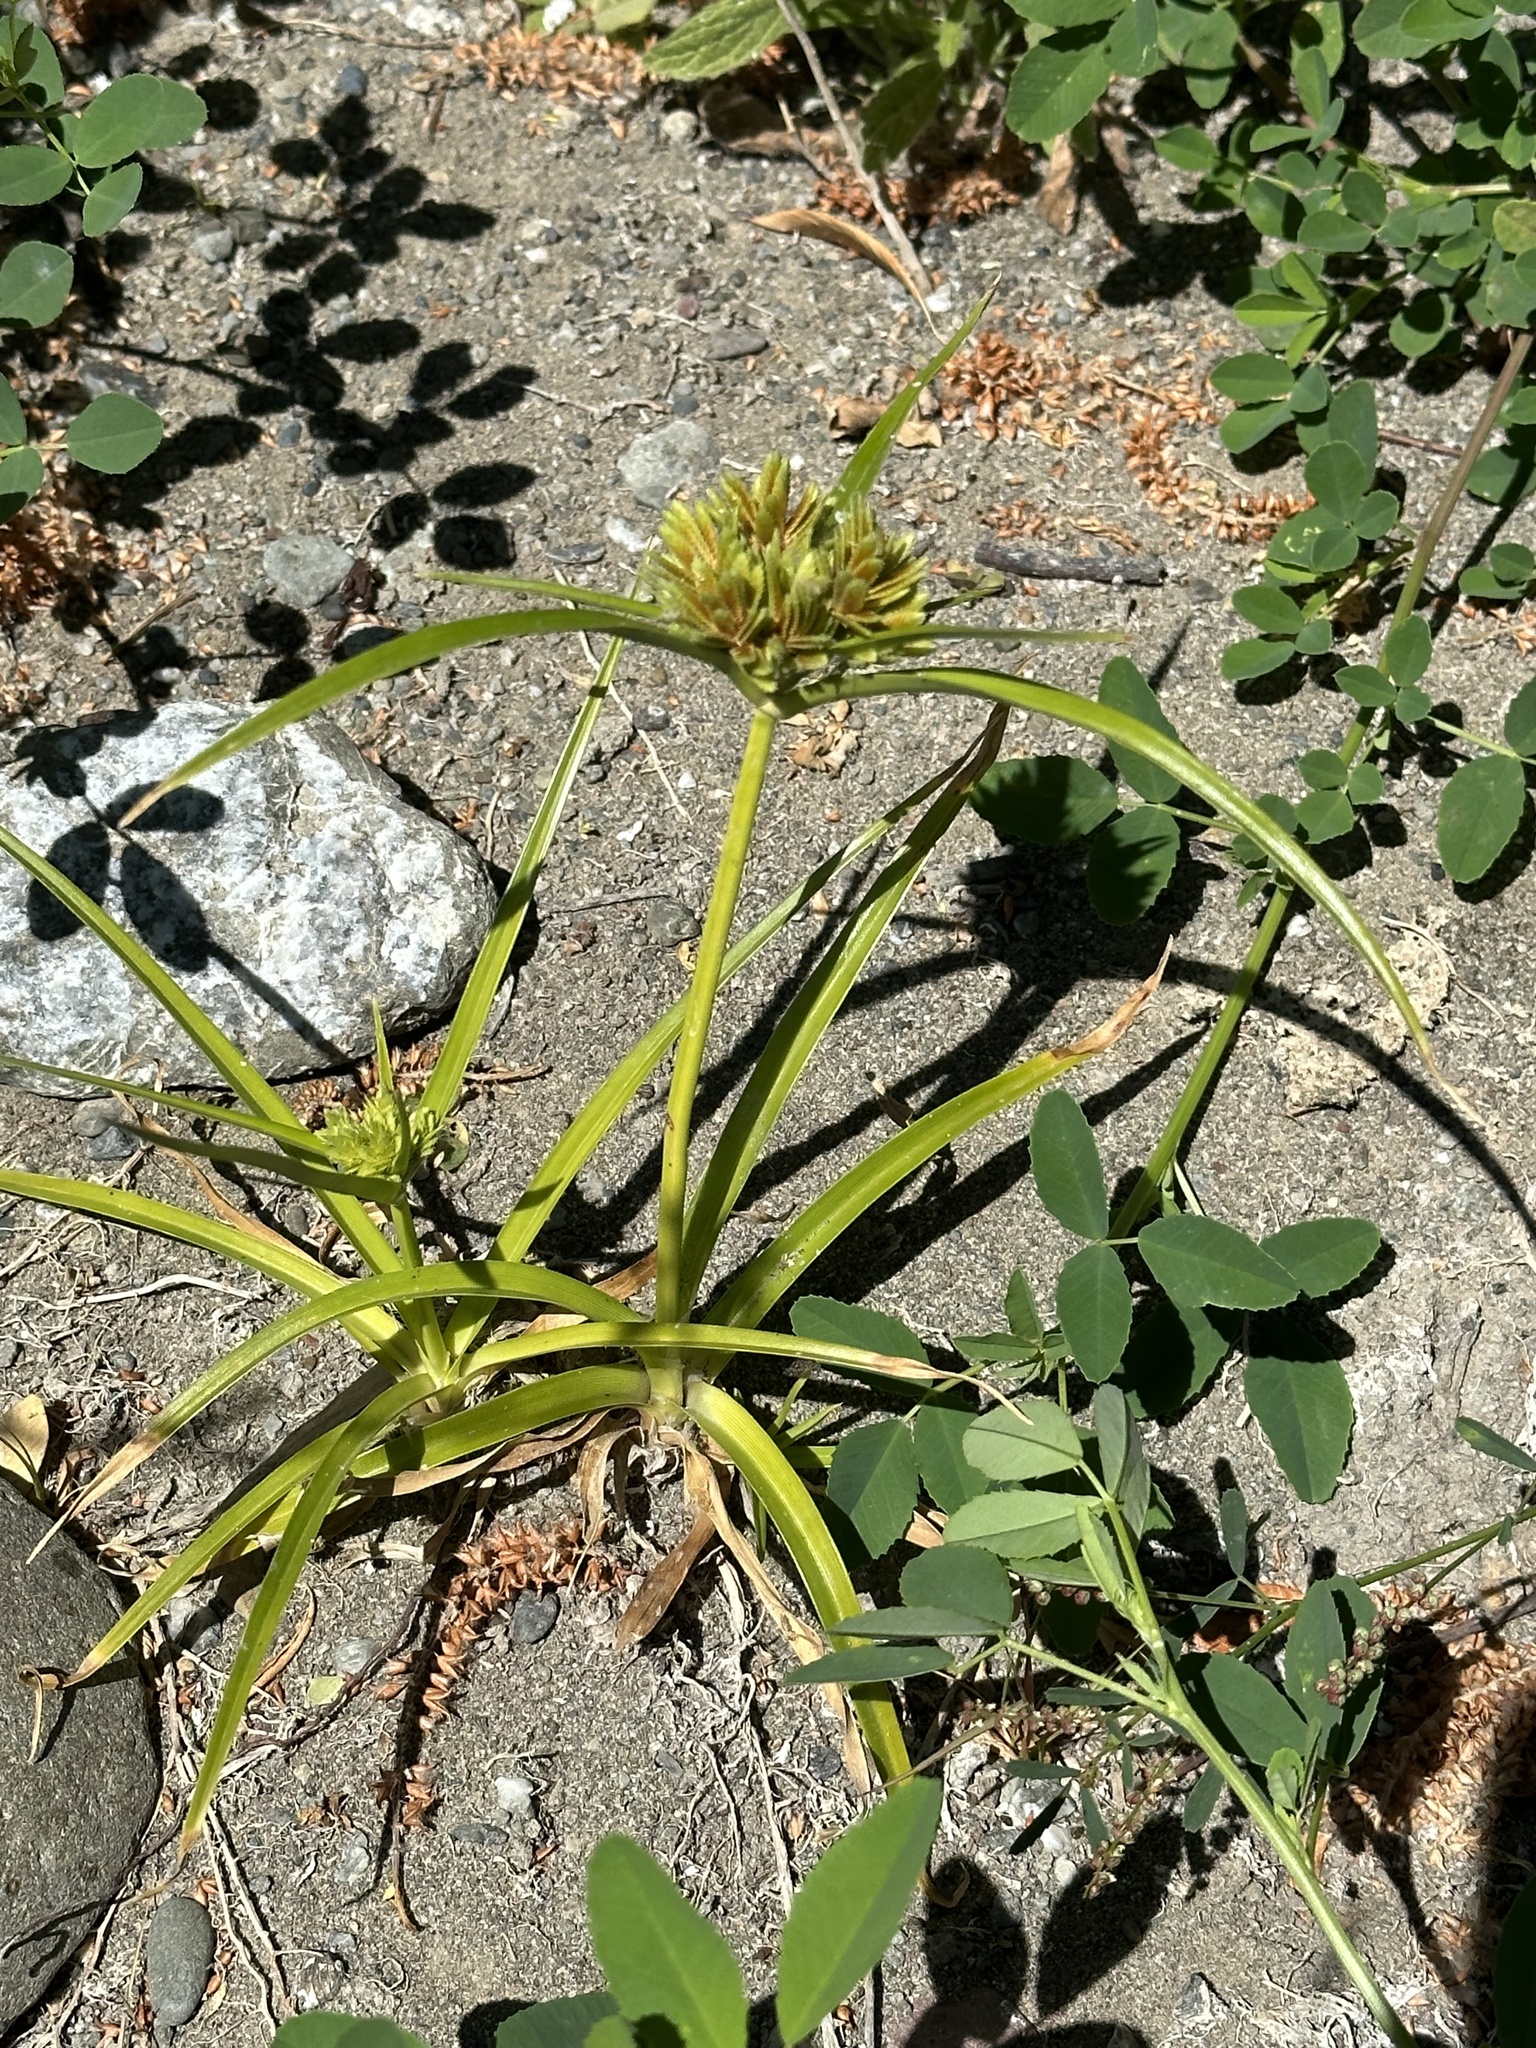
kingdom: Plantae
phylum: Tracheophyta
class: Liliopsida
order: Poales
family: Cyperaceae
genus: Cyperus
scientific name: Cyperus eragrostis
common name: Tall flatsedge
